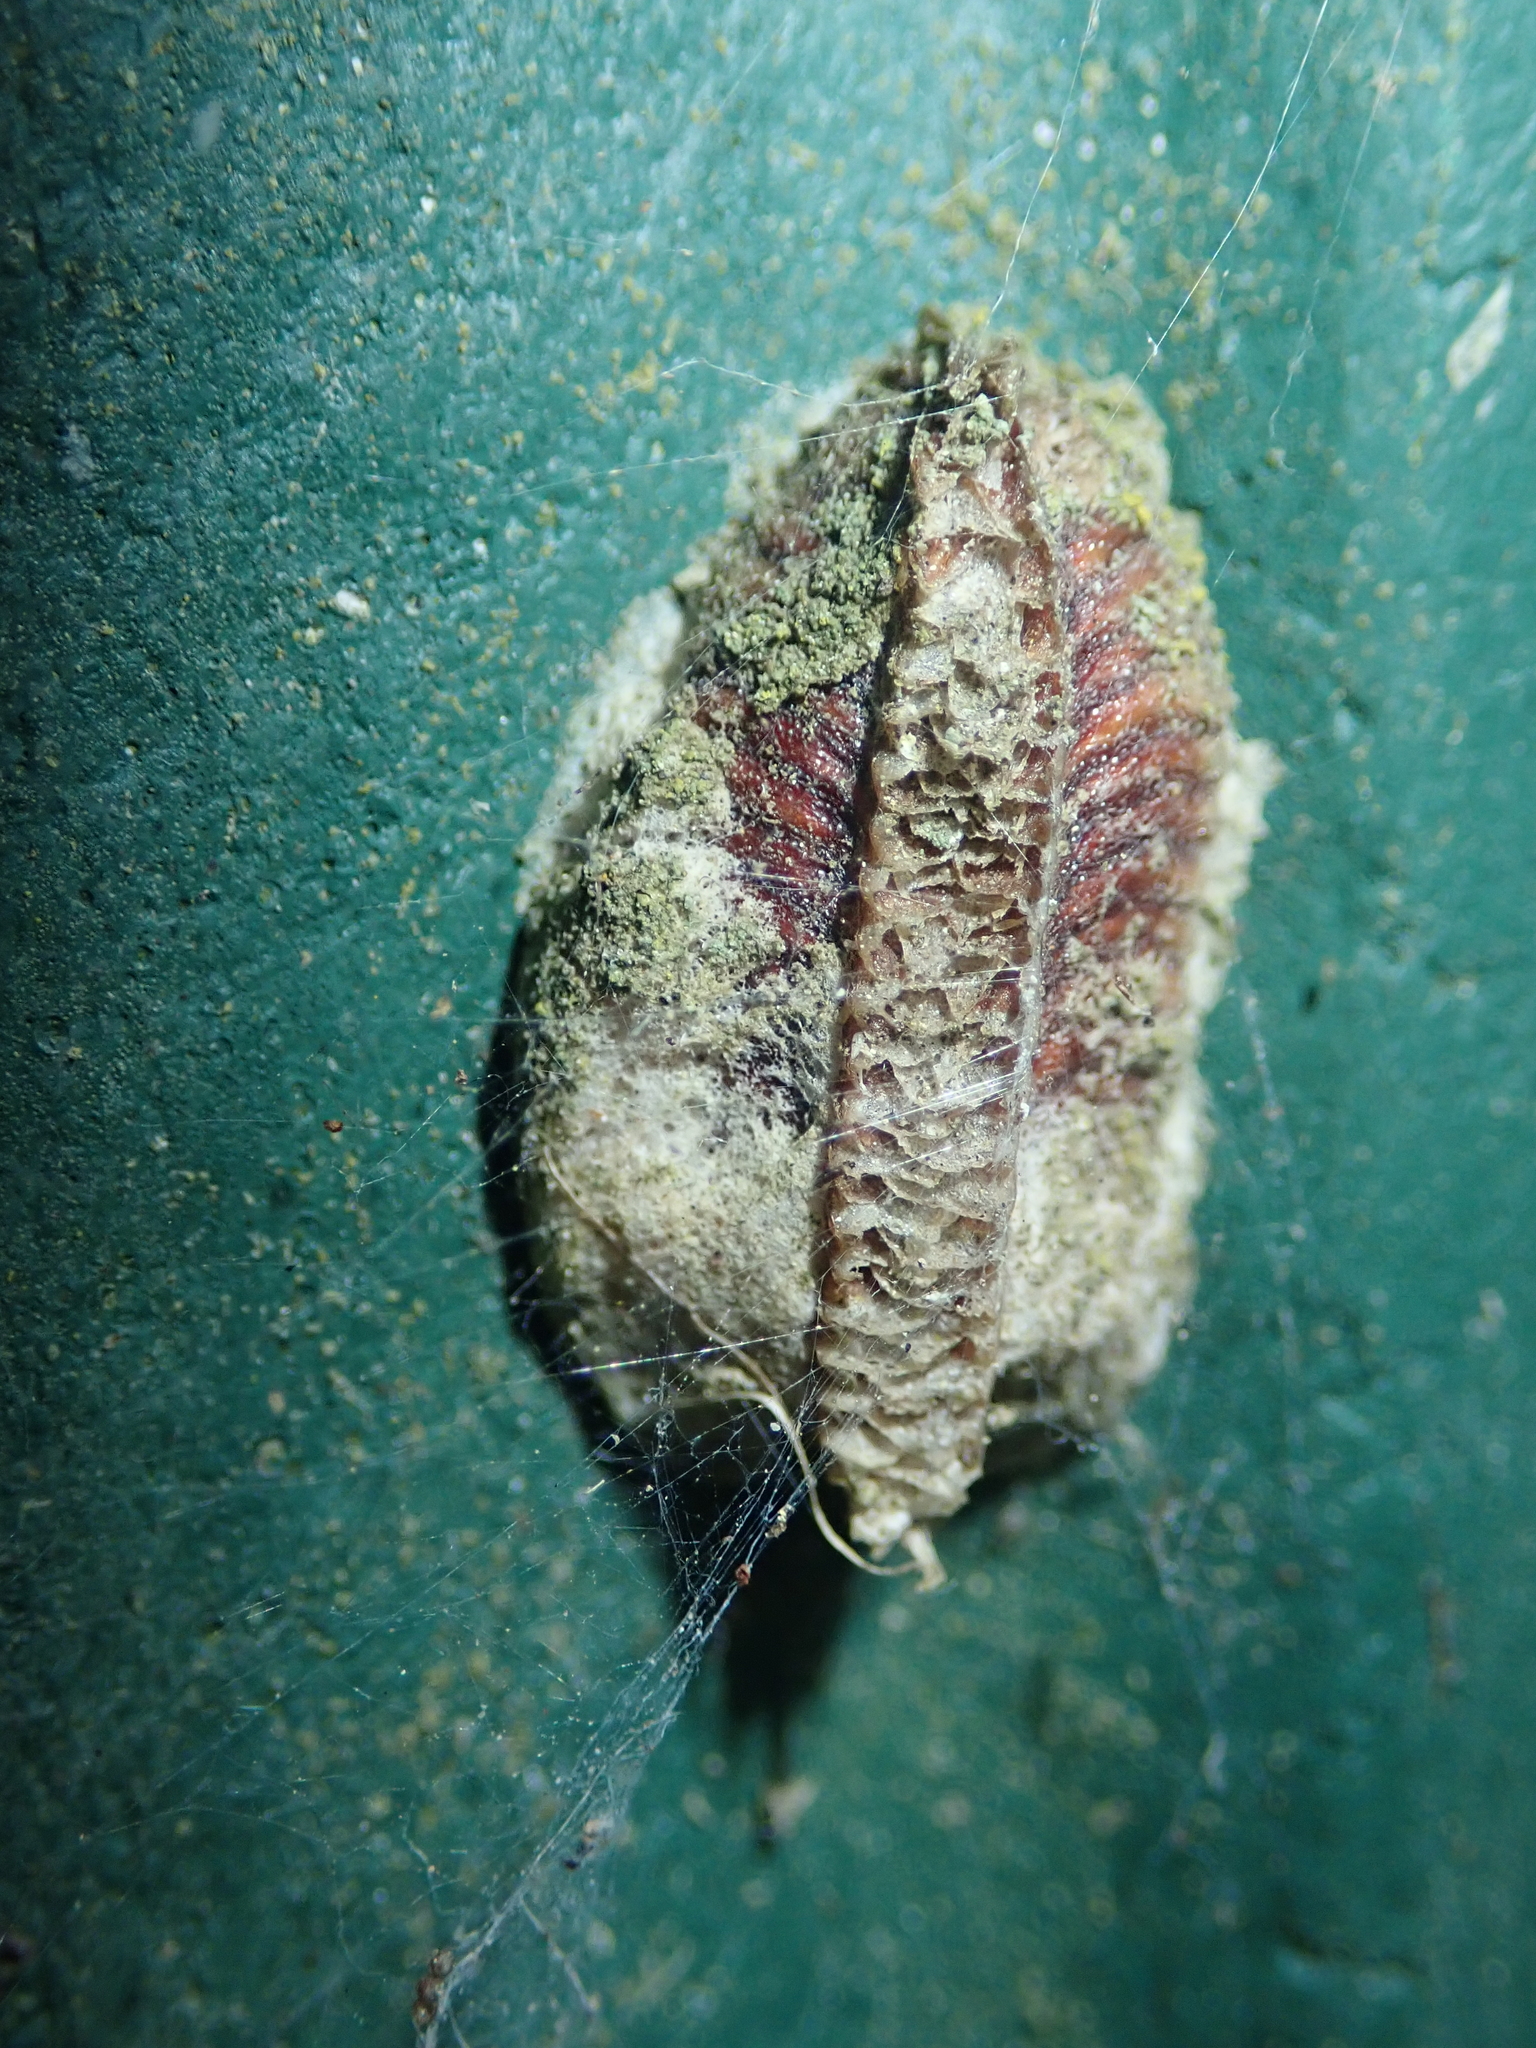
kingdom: Animalia
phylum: Arthropoda
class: Insecta
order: Mantodea
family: Mantidae
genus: Orthodera
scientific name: Orthodera novaezealandiae
